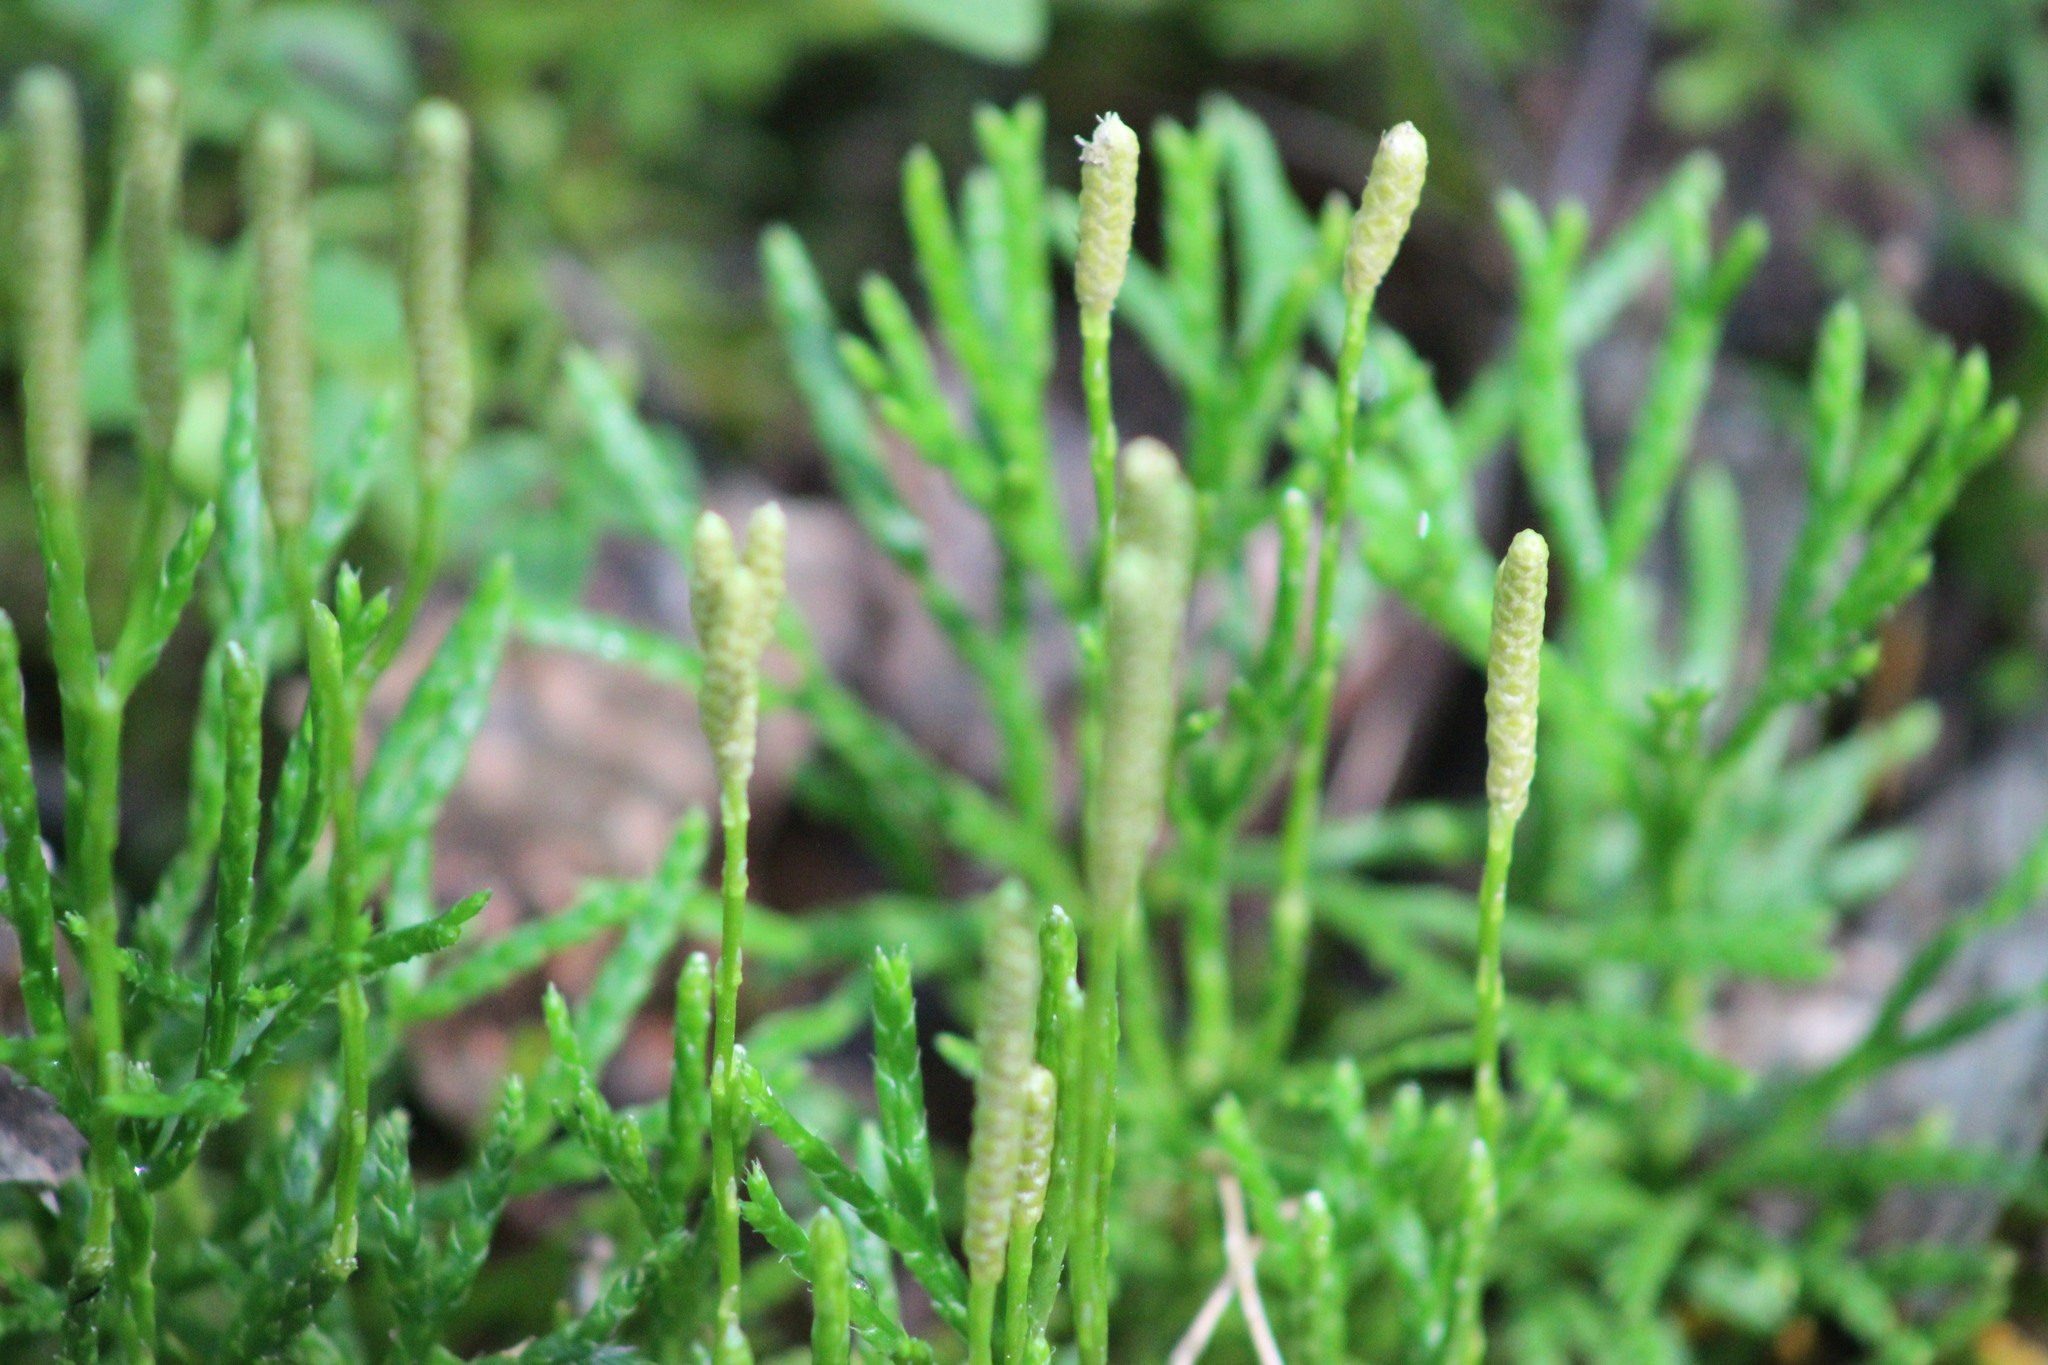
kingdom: Plantae
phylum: Tracheophyta
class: Lycopodiopsida
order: Lycopodiales
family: Lycopodiaceae
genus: Diphasiastrum
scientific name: Diphasiastrum complanatum
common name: Northern running-pine
